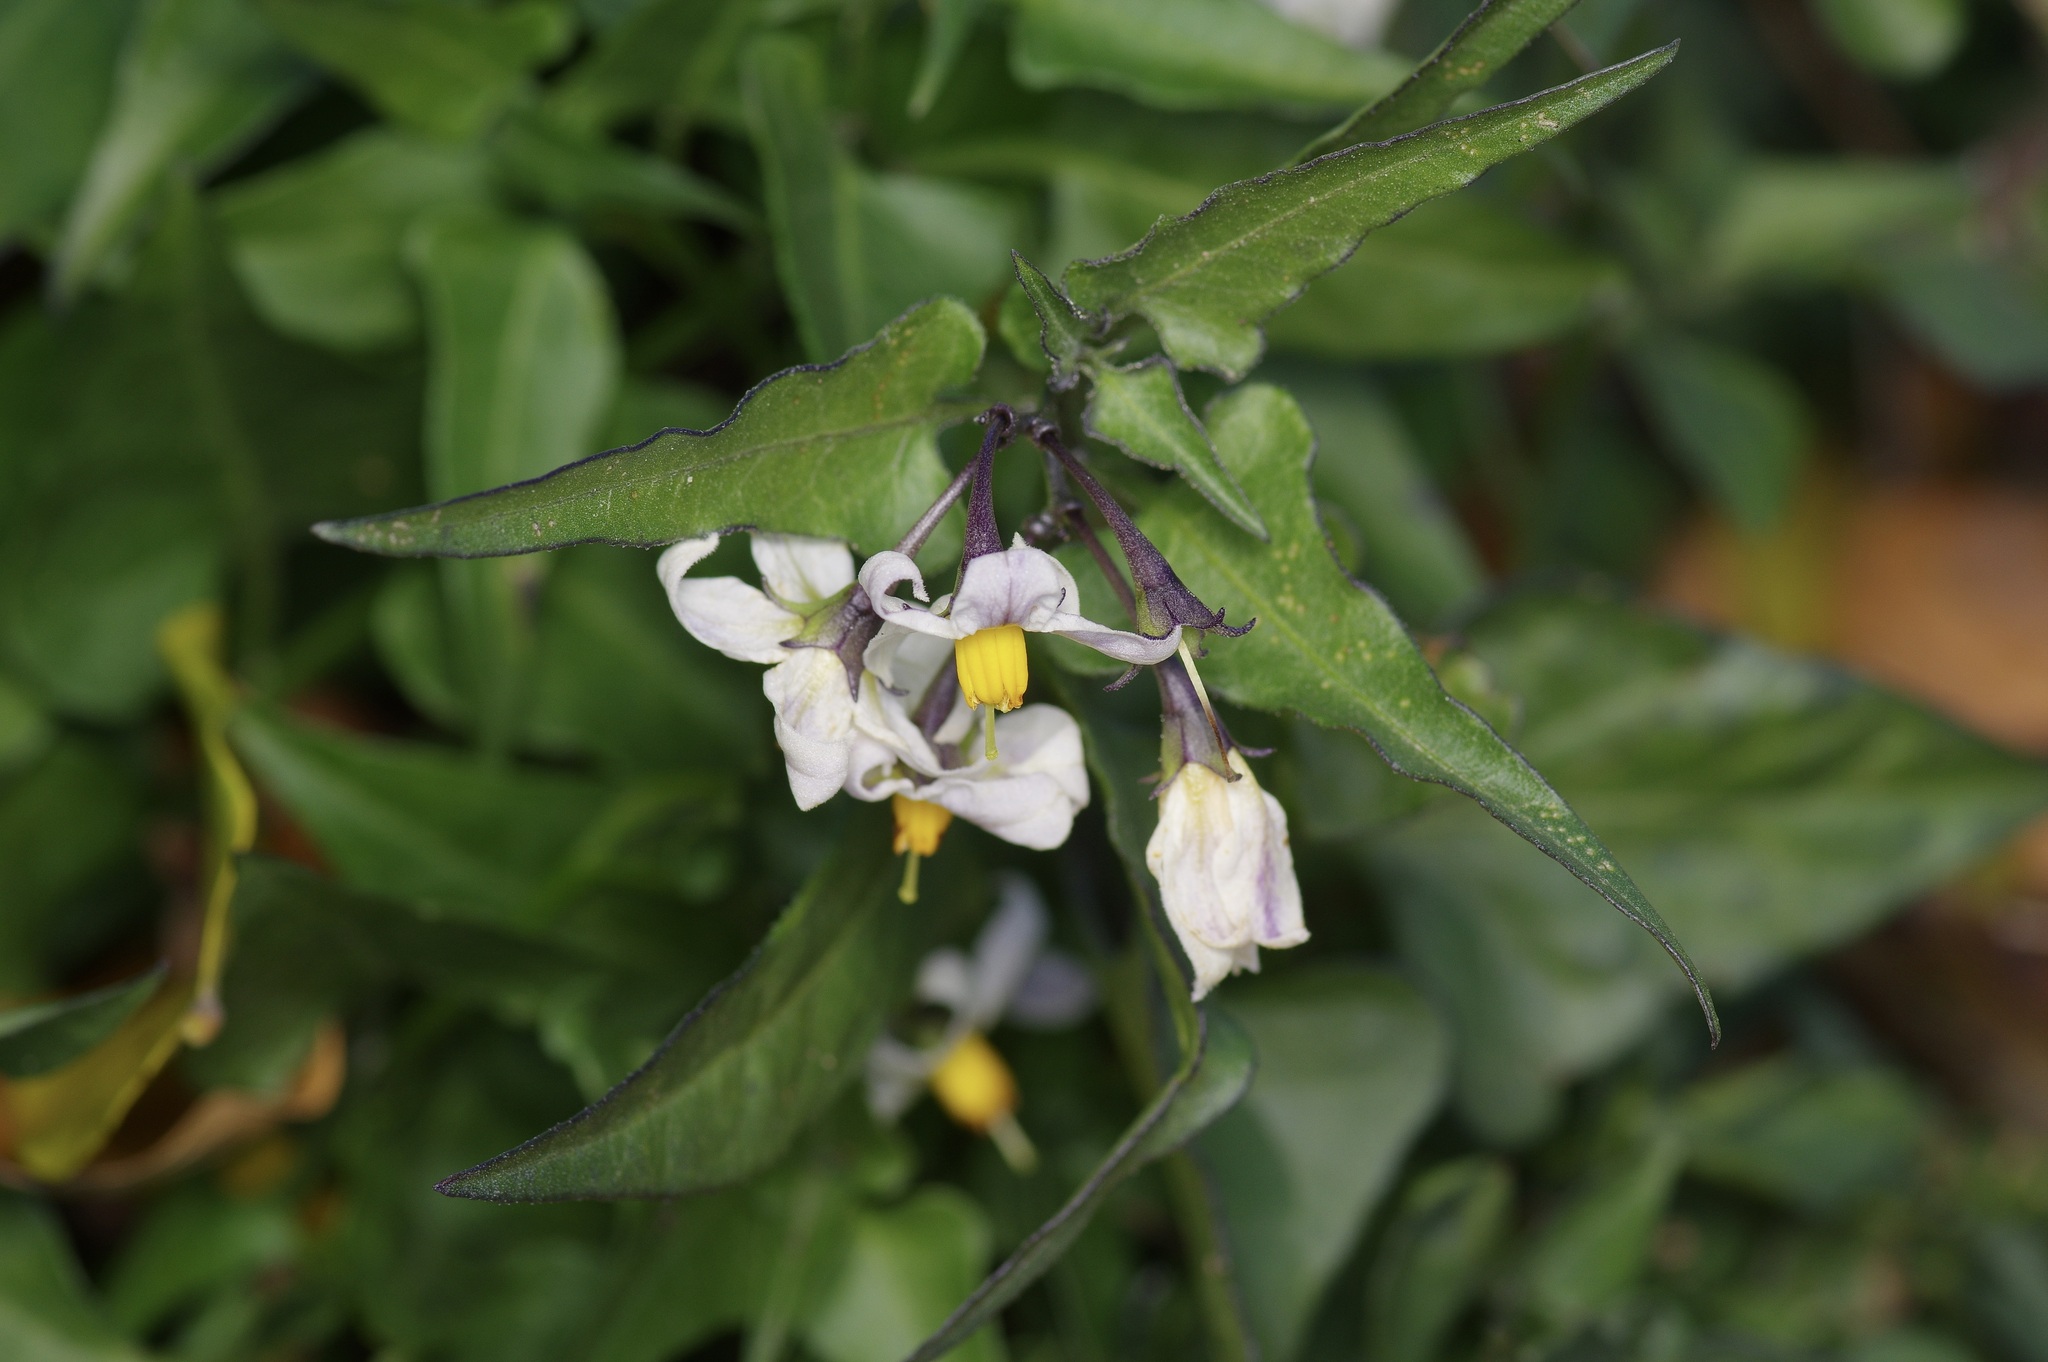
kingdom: Plantae
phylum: Tracheophyta
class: Magnoliopsida
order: Solanales
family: Solanaceae
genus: Solanum
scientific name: Solanum triquetrum
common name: Texas nightshade
